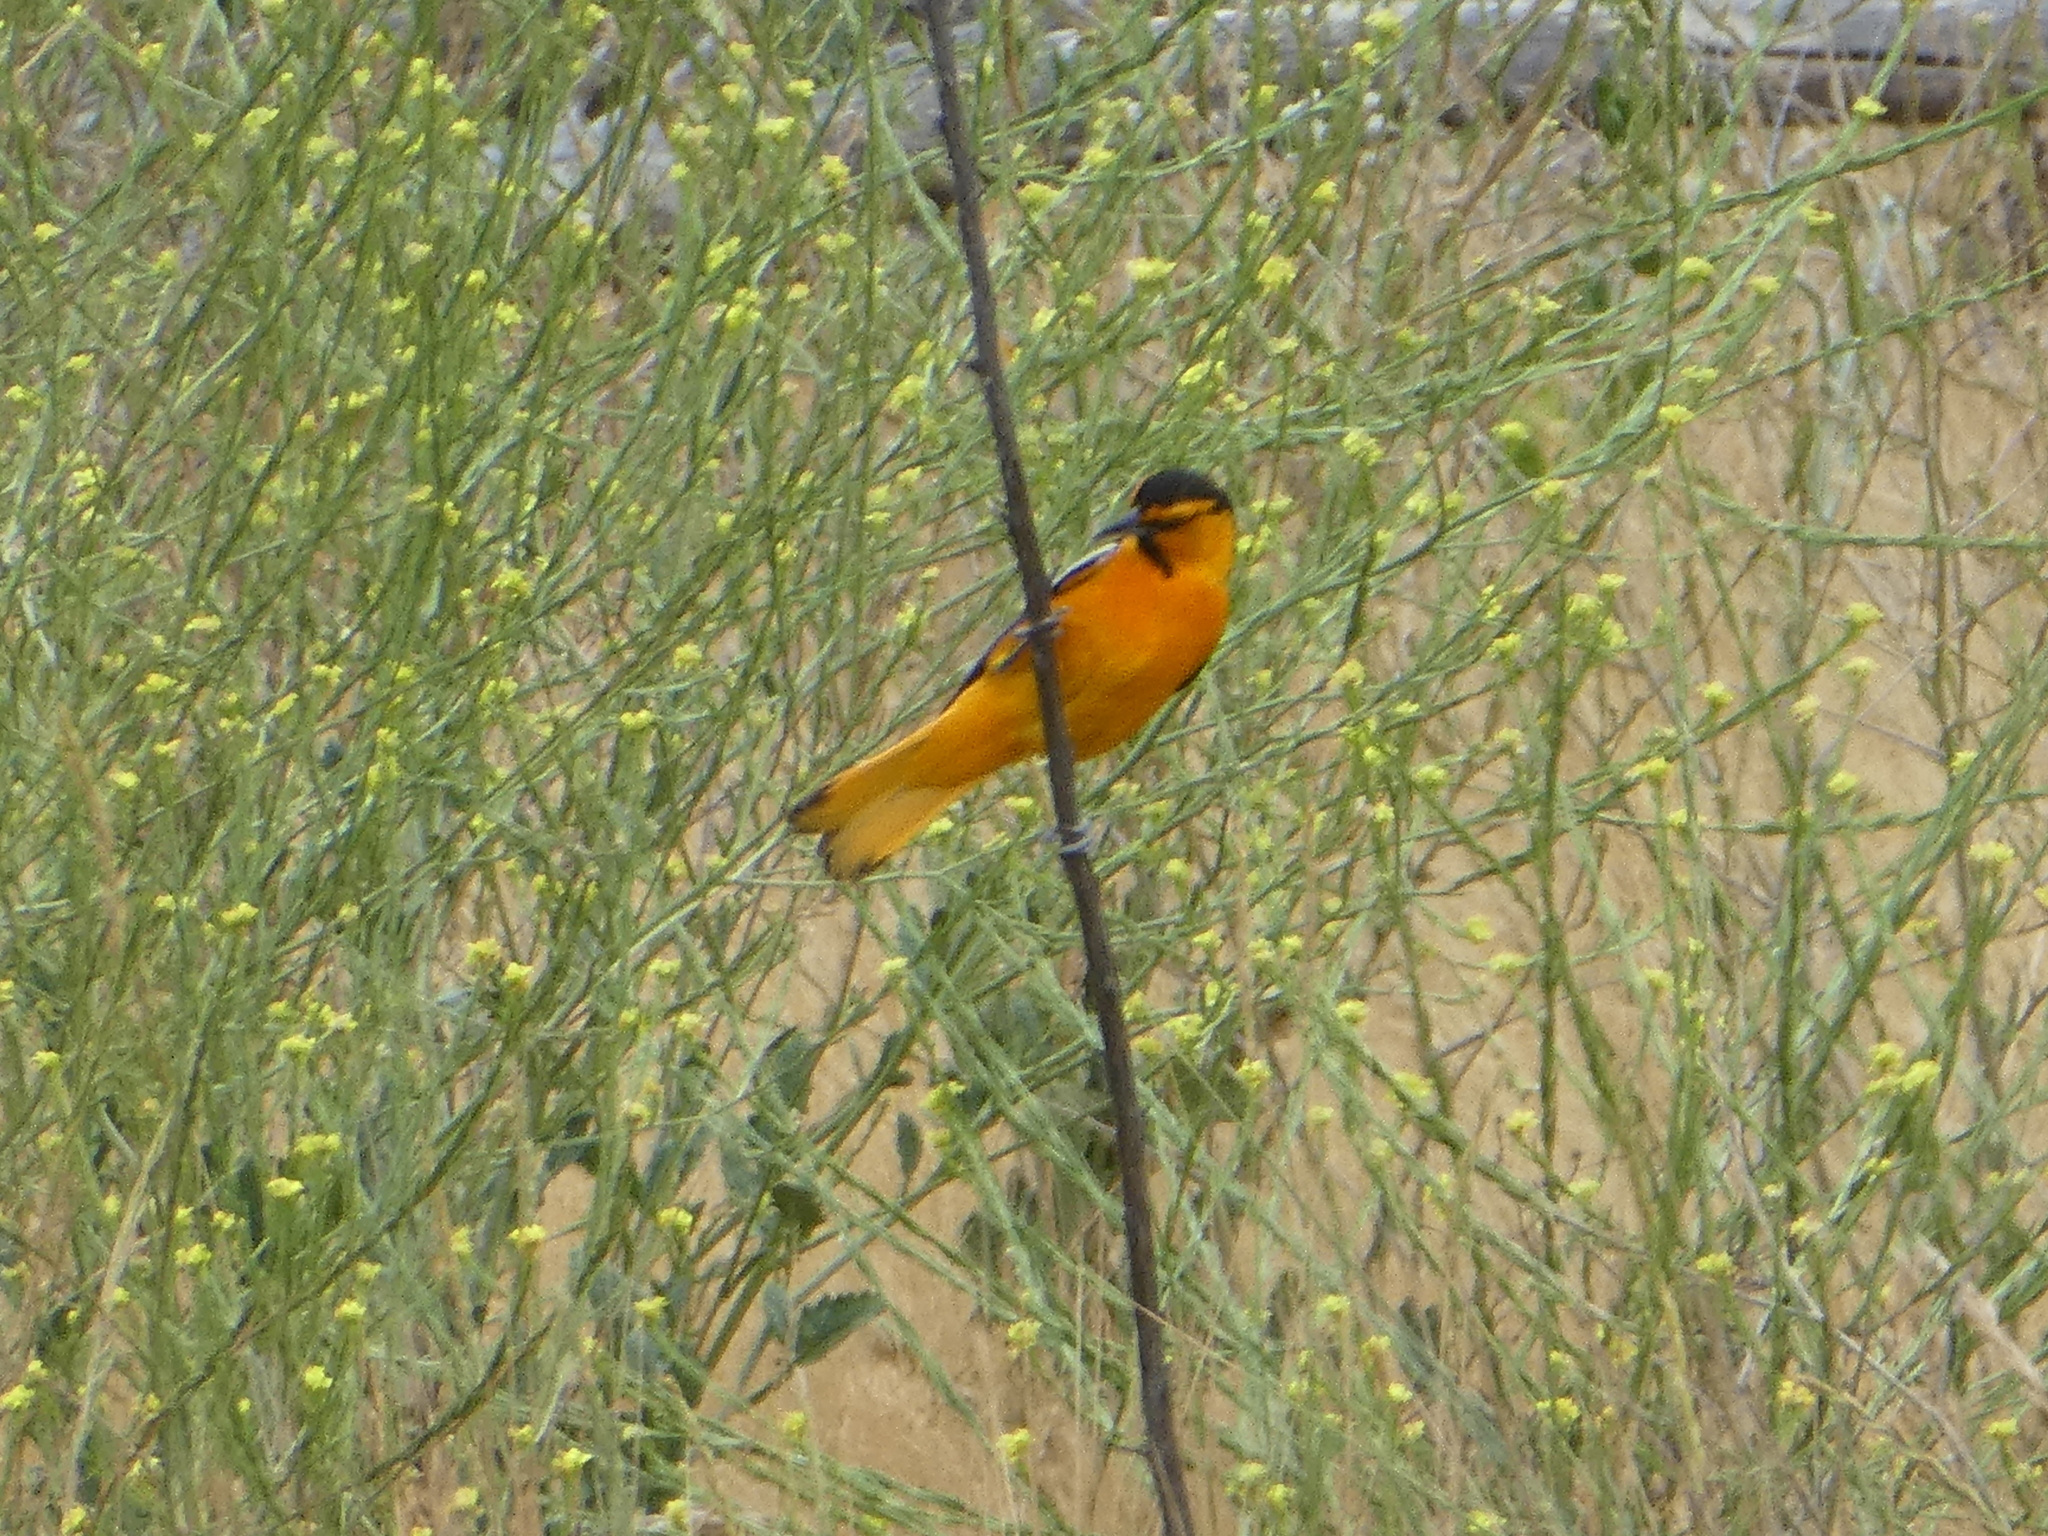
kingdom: Animalia
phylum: Chordata
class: Aves
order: Passeriformes
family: Icteridae
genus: Icterus
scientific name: Icterus bullockii
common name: Bullock's oriole
